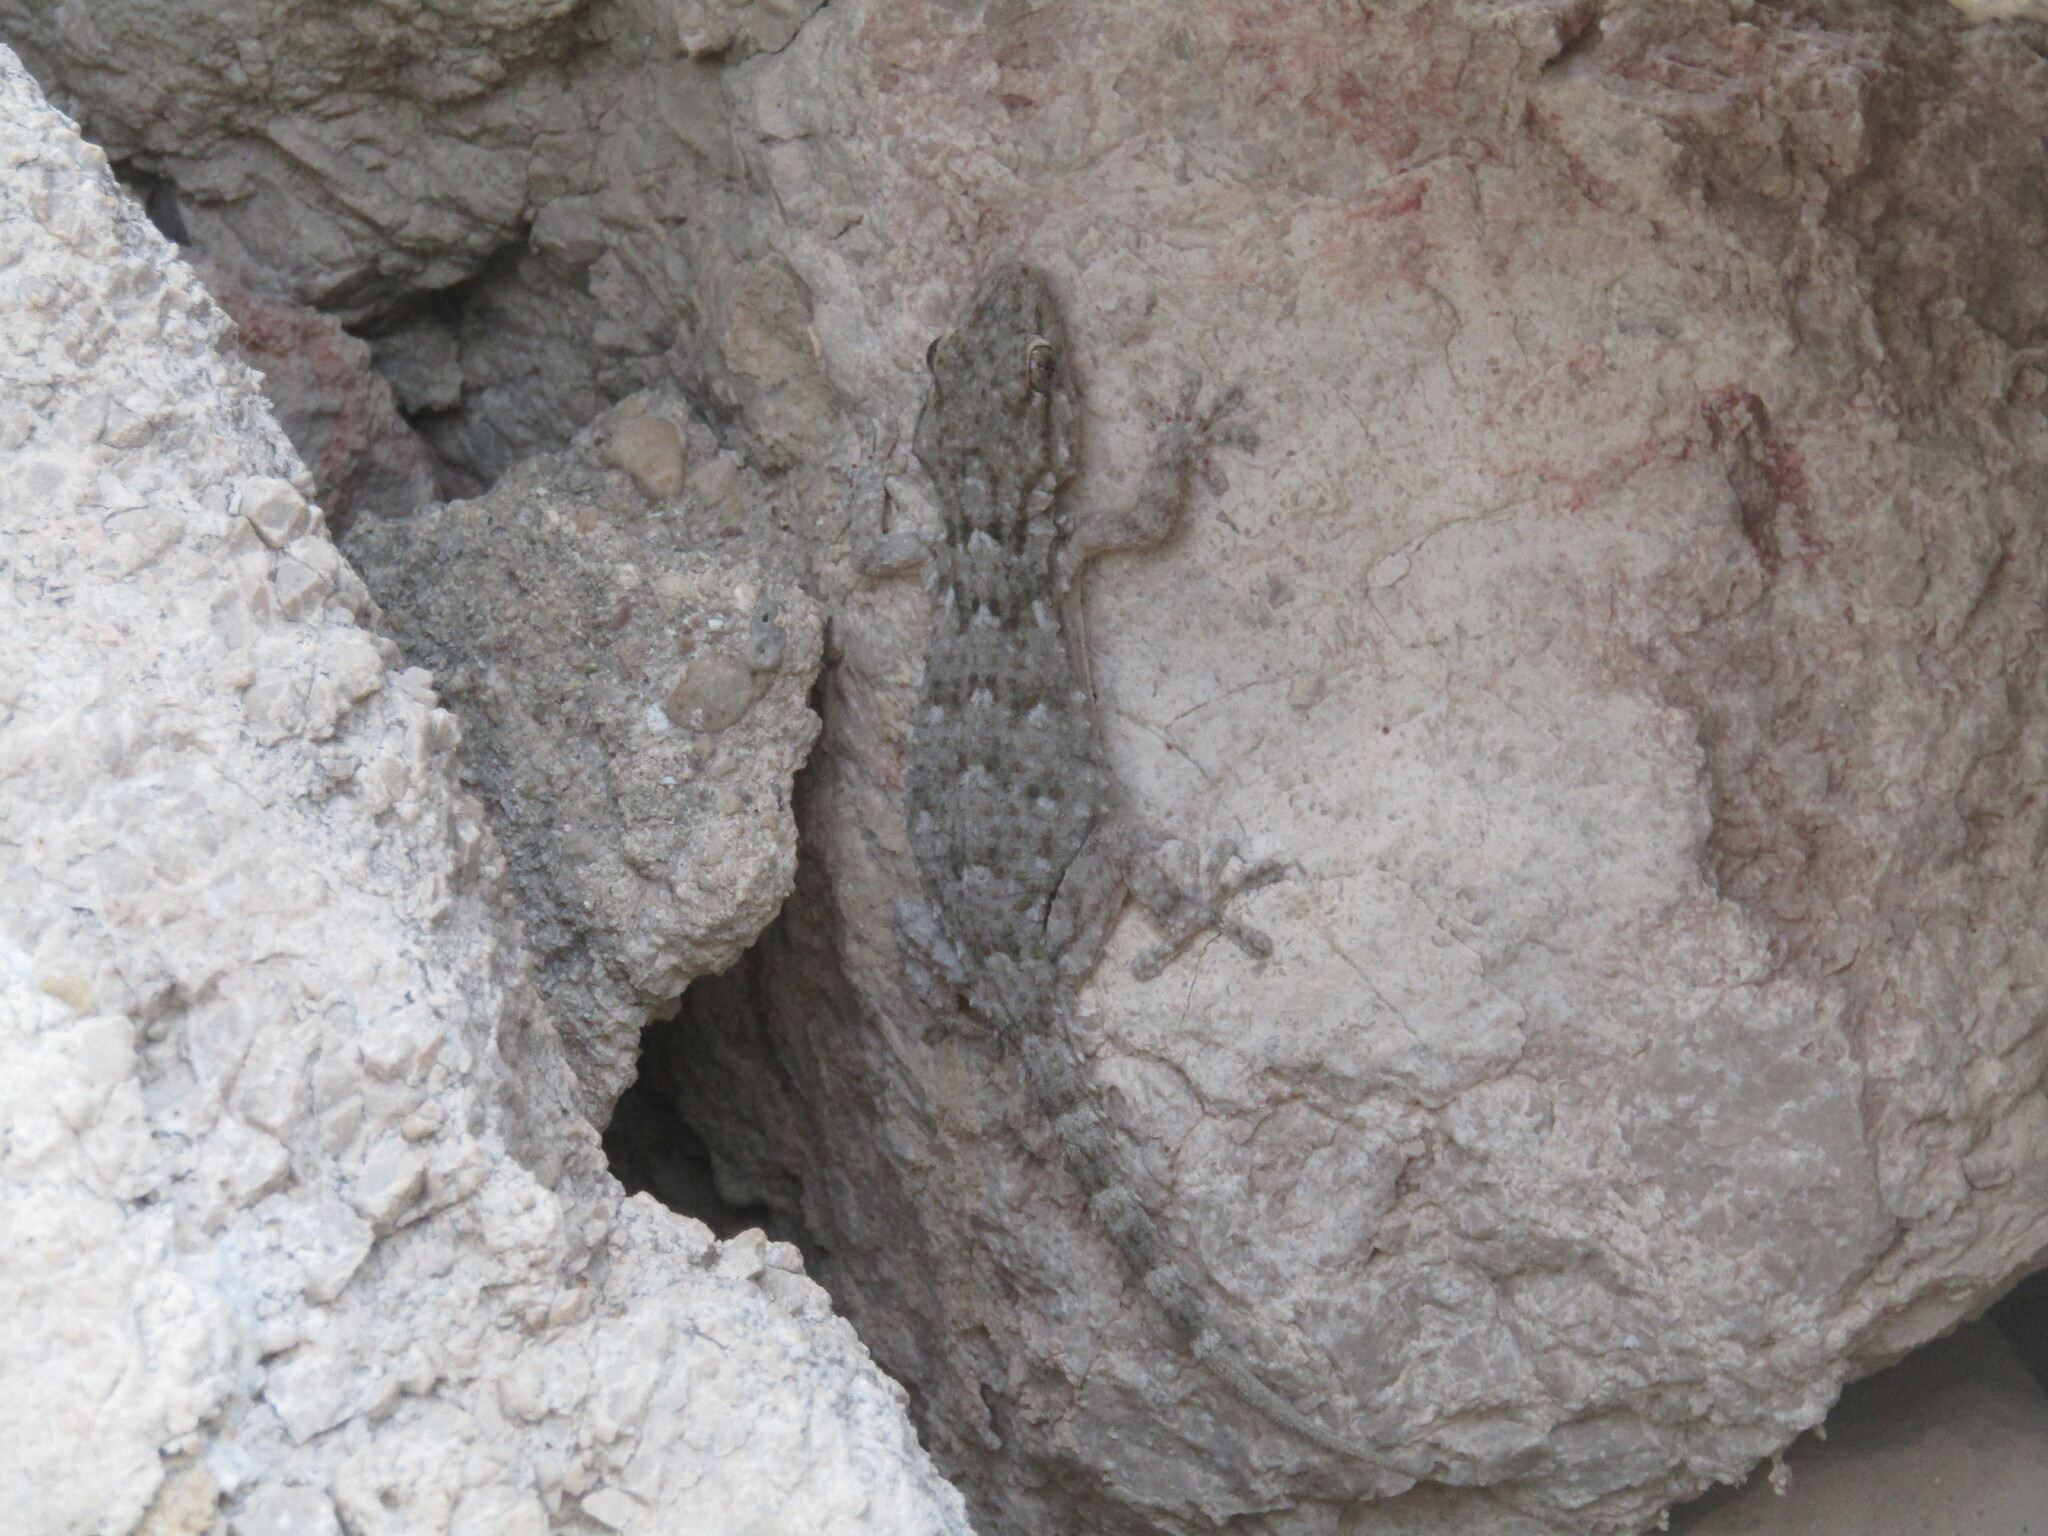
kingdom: Animalia
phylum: Chordata
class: Squamata
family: Phyllodactylidae
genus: Tarentola
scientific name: Tarentola mauritanica
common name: Moorish gecko
